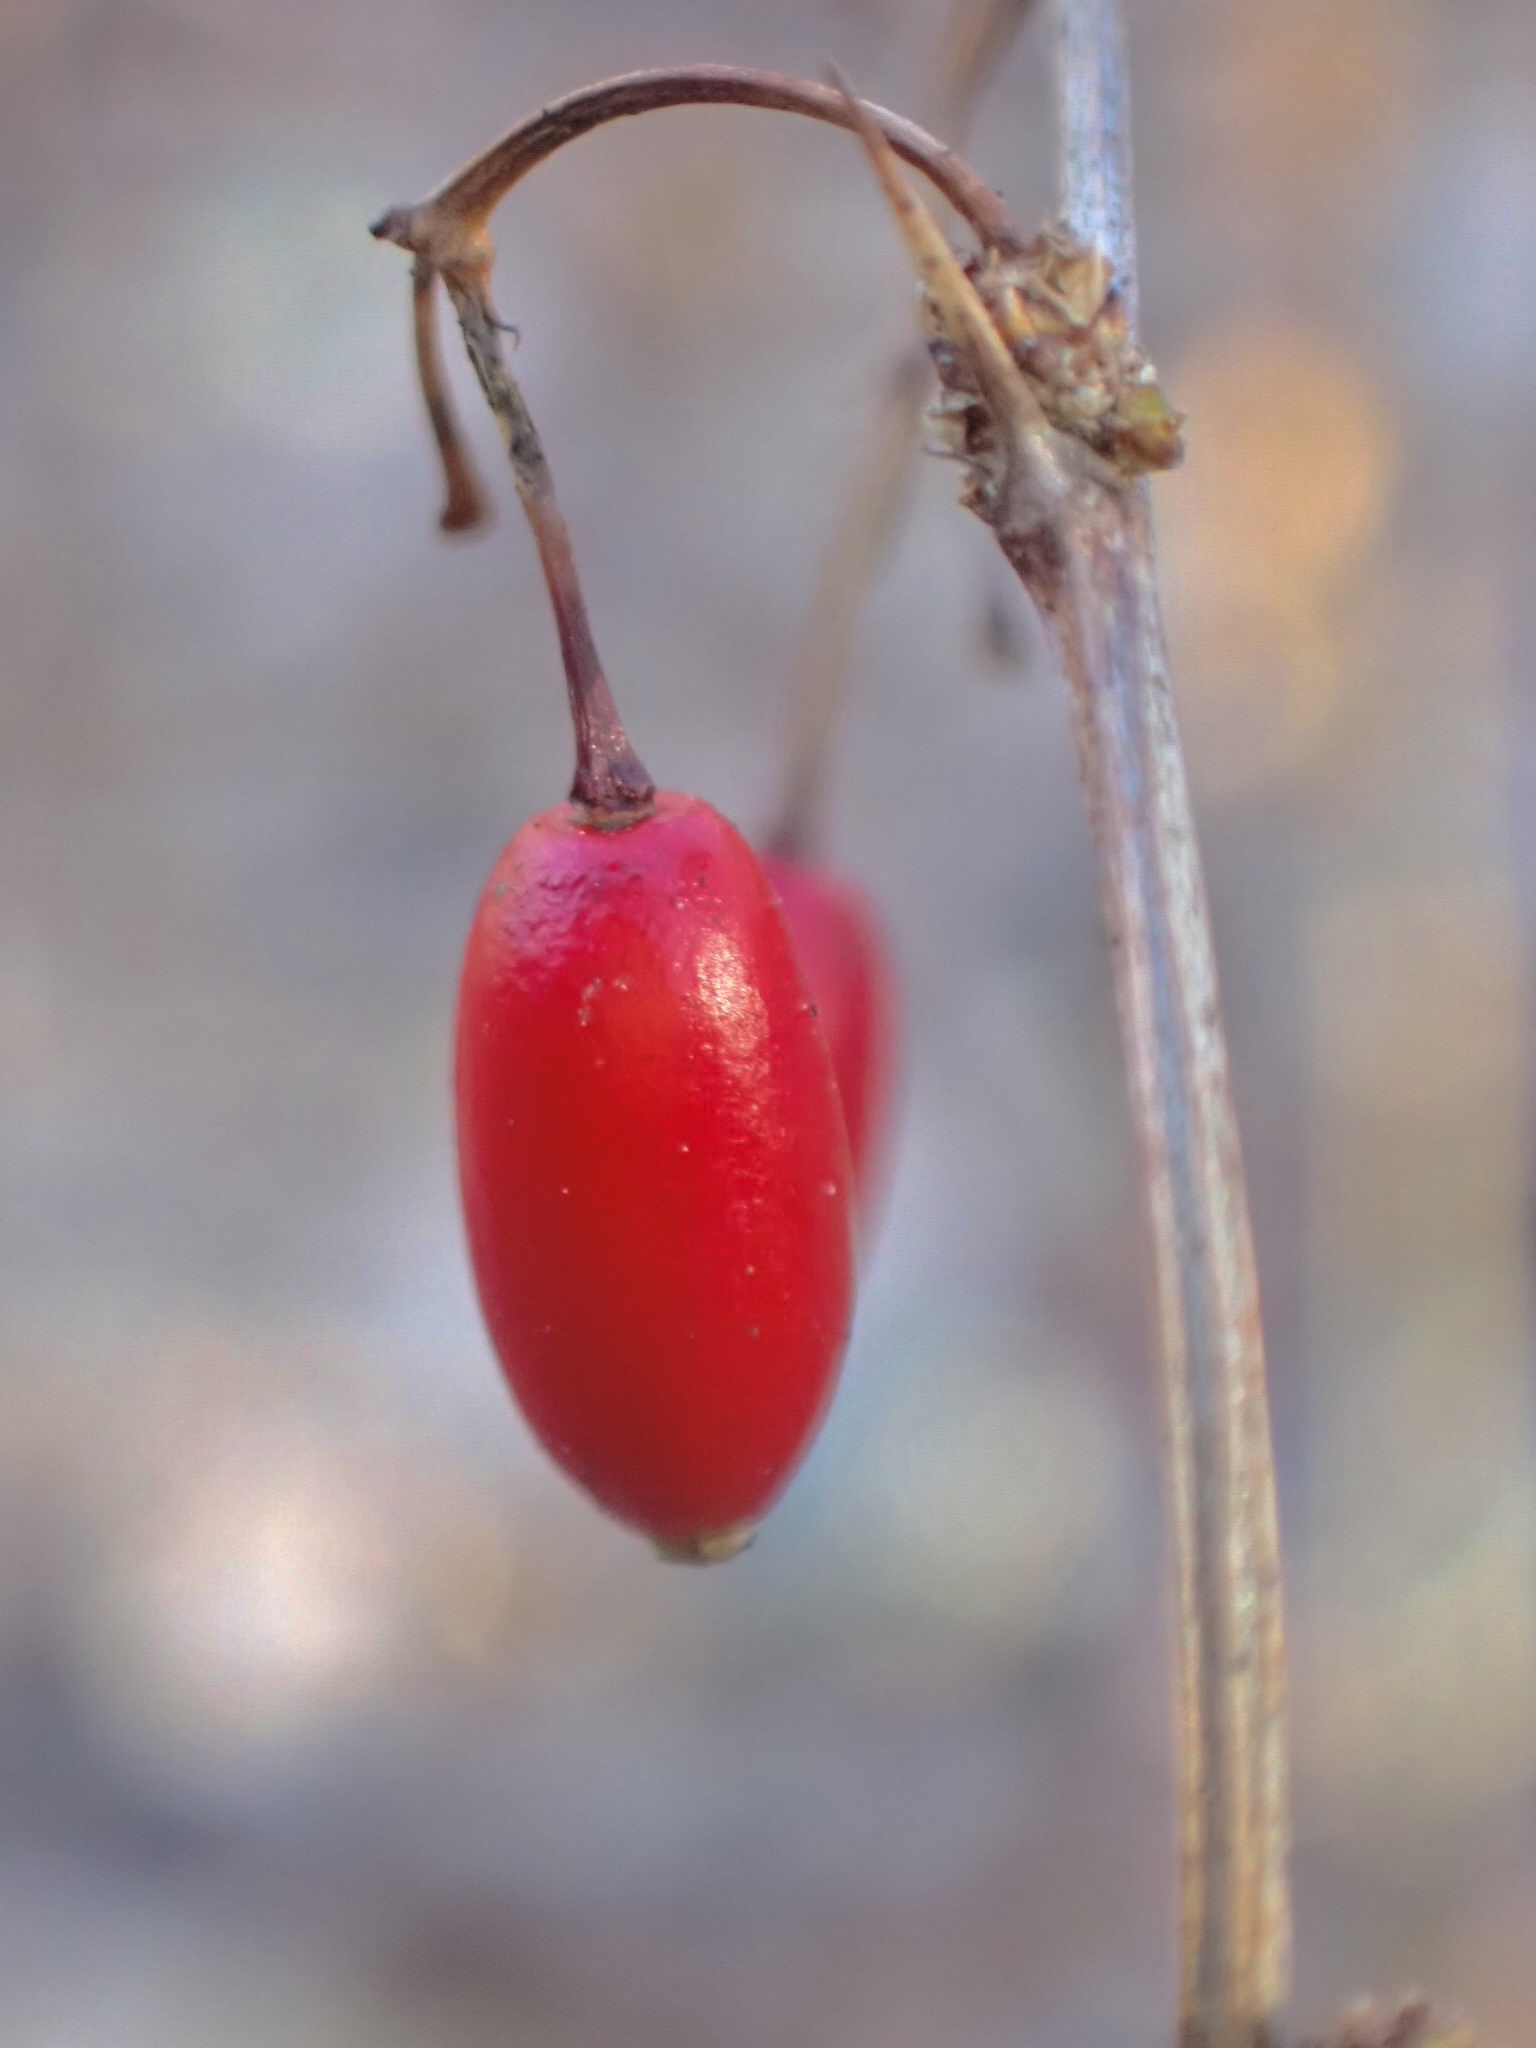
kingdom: Plantae
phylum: Tracheophyta
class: Magnoliopsida
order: Ranunculales
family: Berberidaceae
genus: Berberis
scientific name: Berberis thunbergii
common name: Japanese barberry
